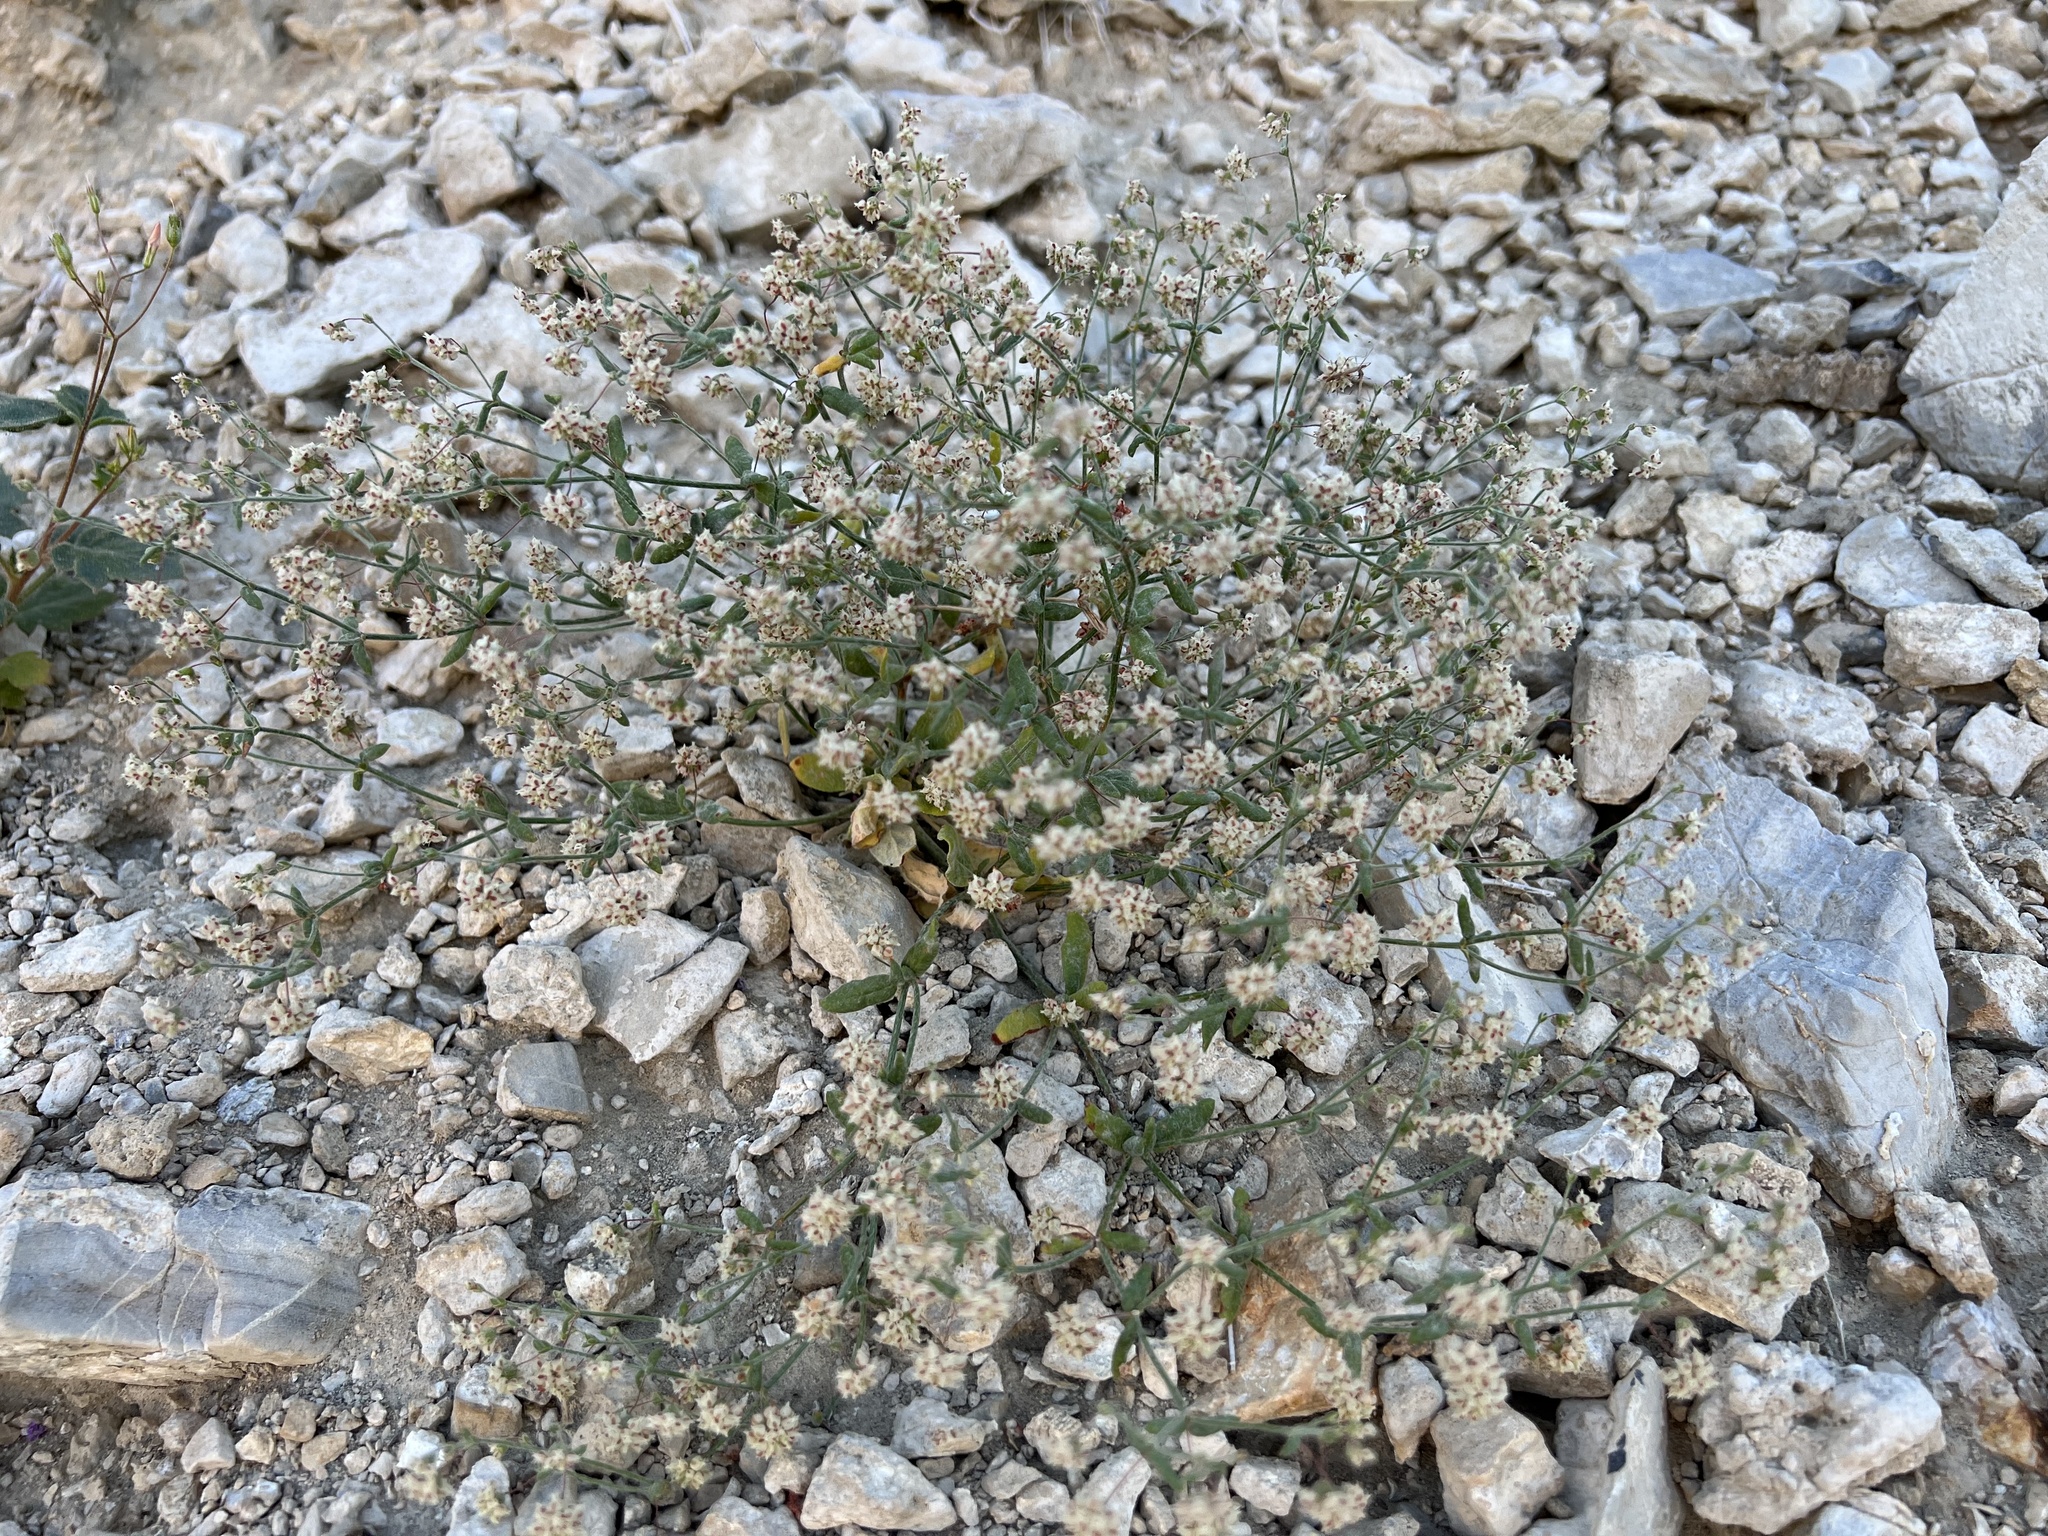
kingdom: Plantae
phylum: Tracheophyta
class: Magnoliopsida
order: Caryophyllales
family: Polygonaceae
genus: Eriogonum
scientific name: Eriogonum maculatum
